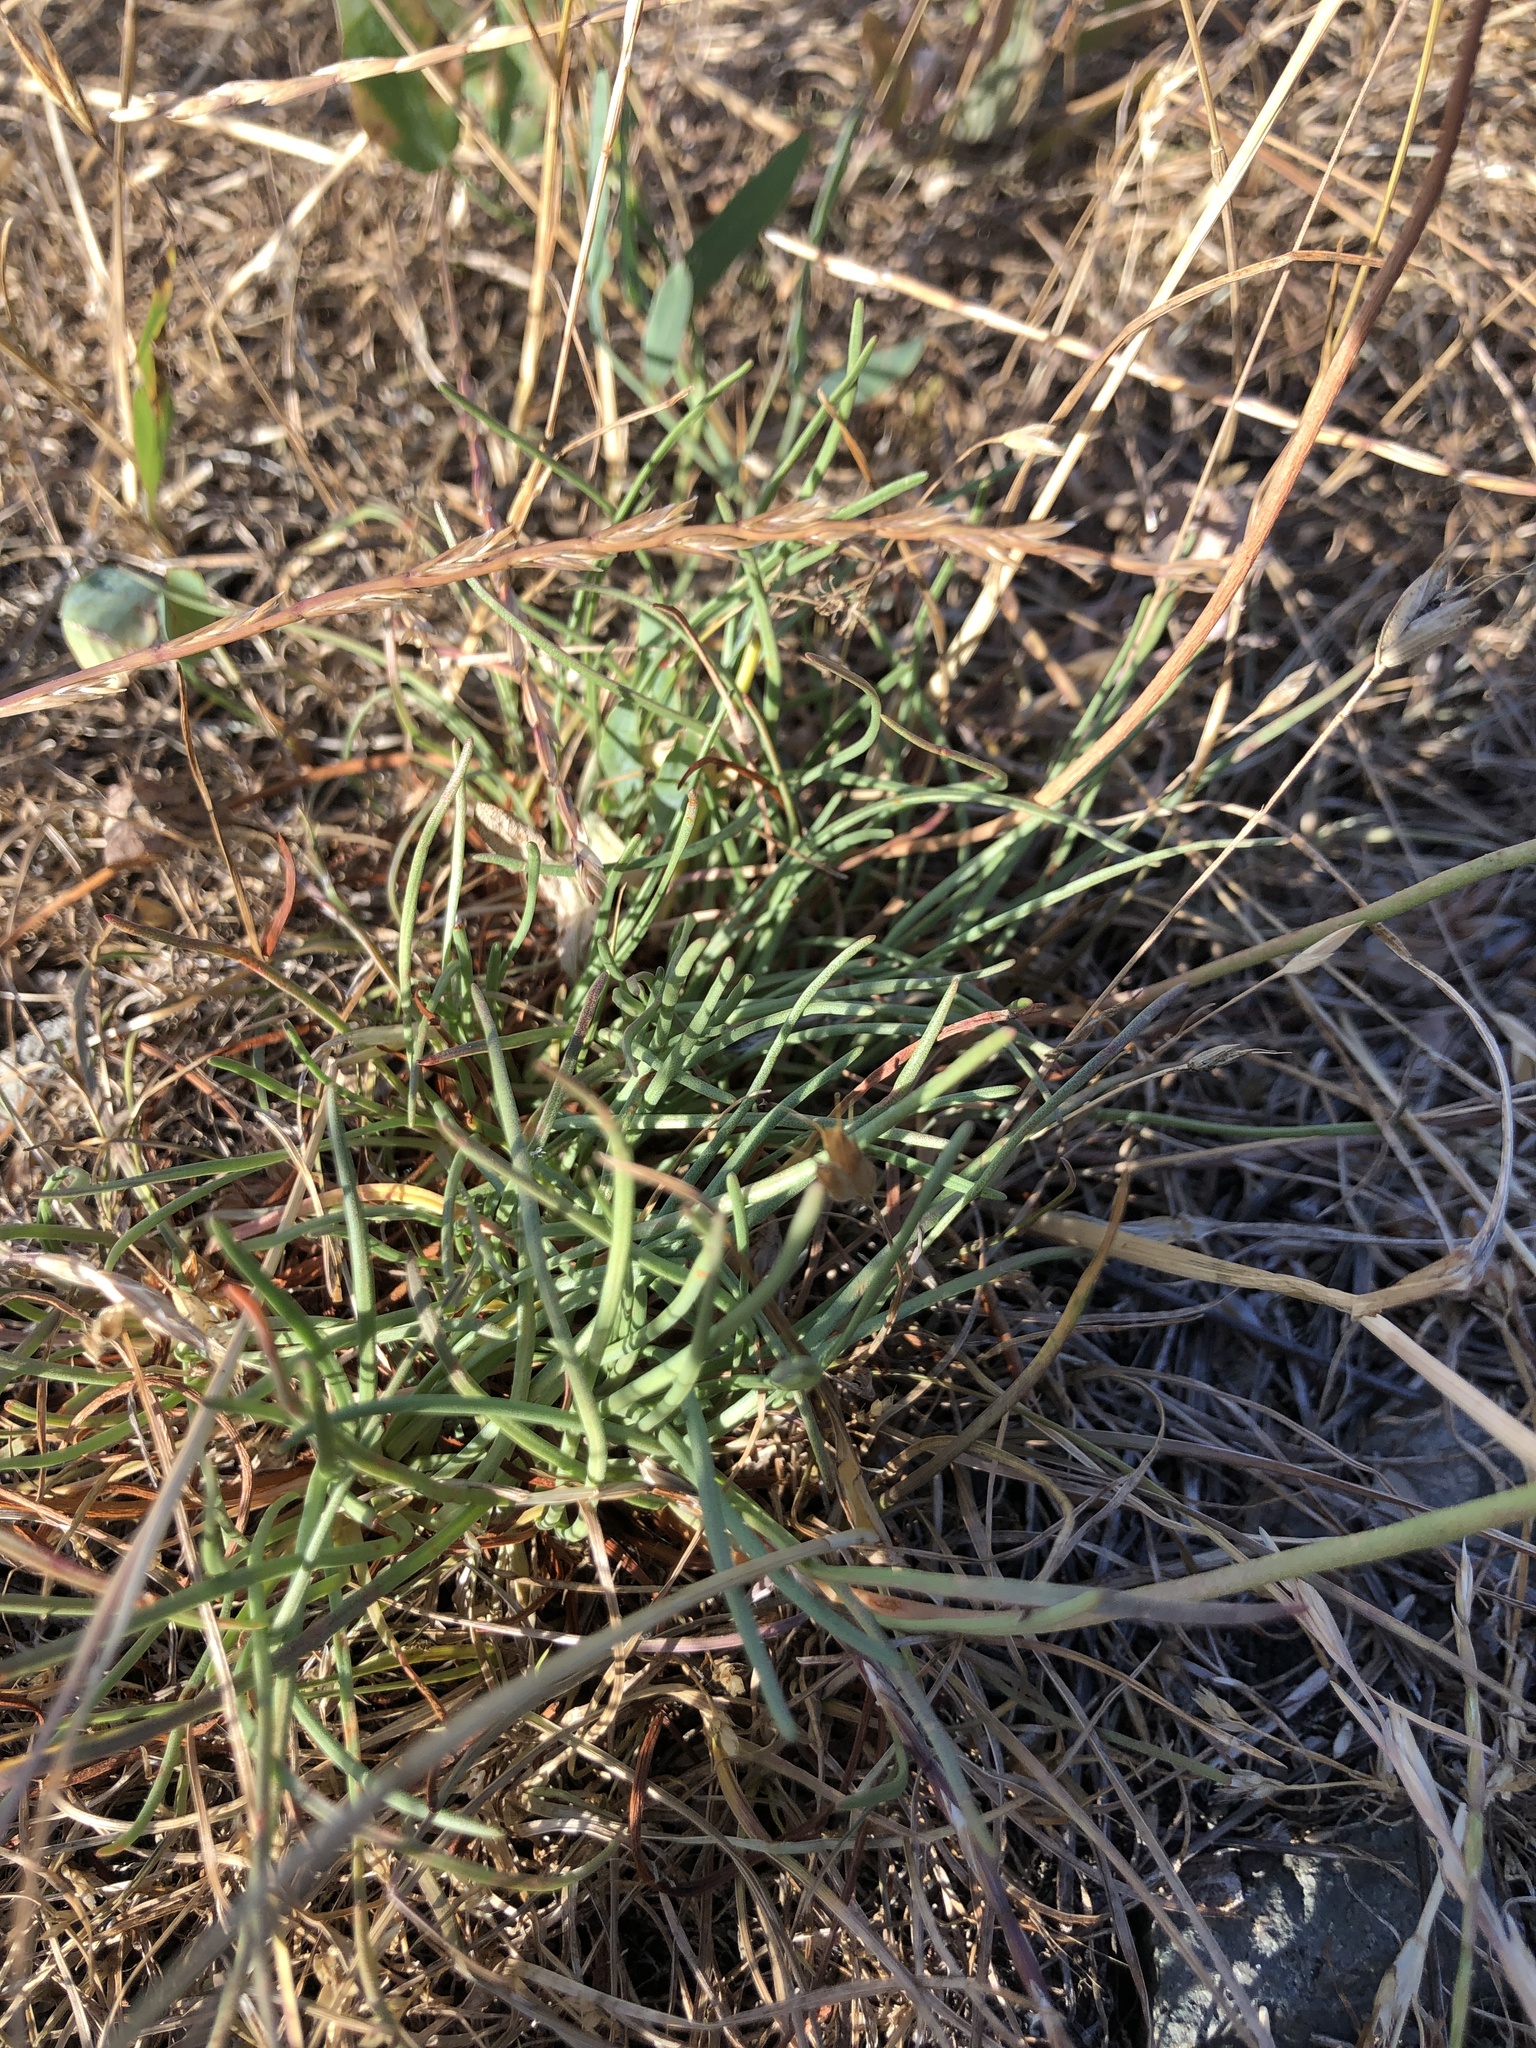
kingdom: Plantae
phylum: Tracheophyta
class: Magnoliopsida
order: Caryophyllales
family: Plumbaginaceae
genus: Armeria
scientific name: Armeria maritima
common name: Thrift
